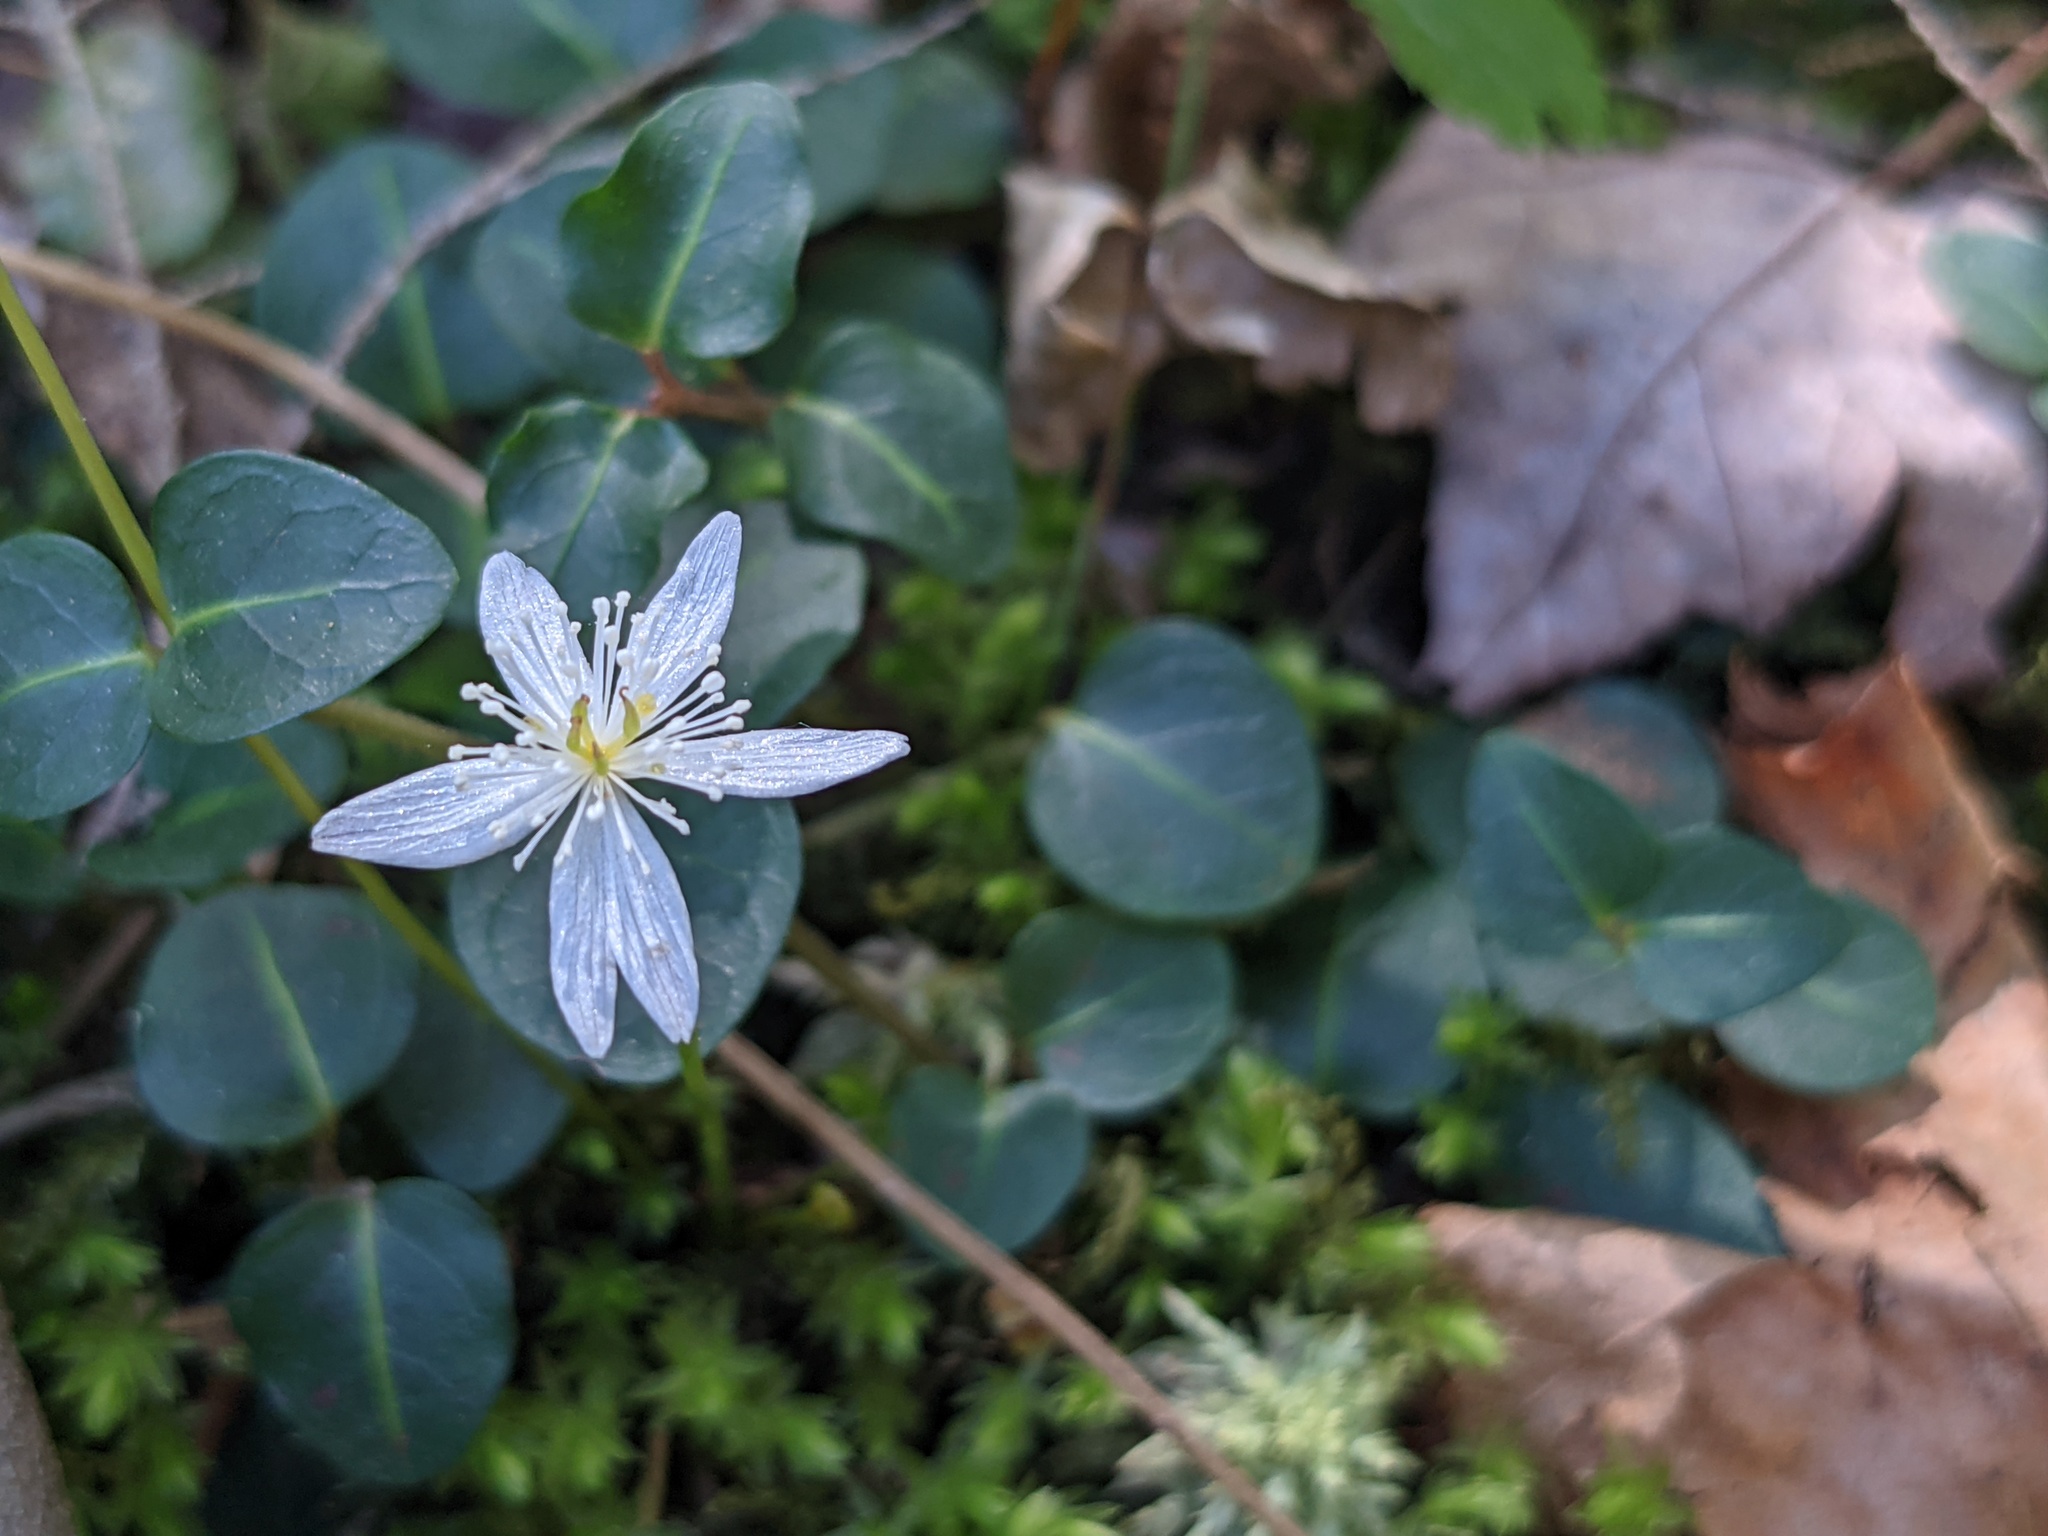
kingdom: Plantae
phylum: Tracheophyta
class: Magnoliopsida
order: Ranunculales
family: Ranunculaceae
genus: Coptis
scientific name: Coptis trifolia
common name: Canker-root
